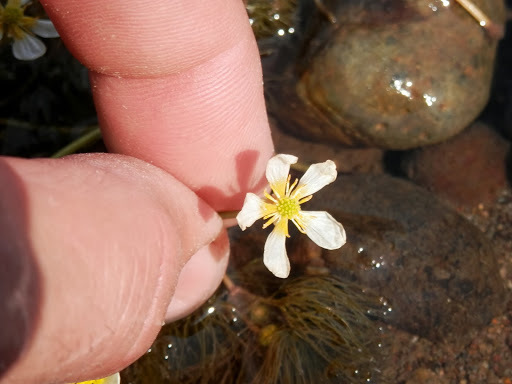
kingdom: Plantae
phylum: Tracheophyta
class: Magnoliopsida
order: Ranunculales
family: Ranunculaceae
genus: Ranunculus
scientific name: Ranunculus aquatilis
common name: Common water-crowfoot
